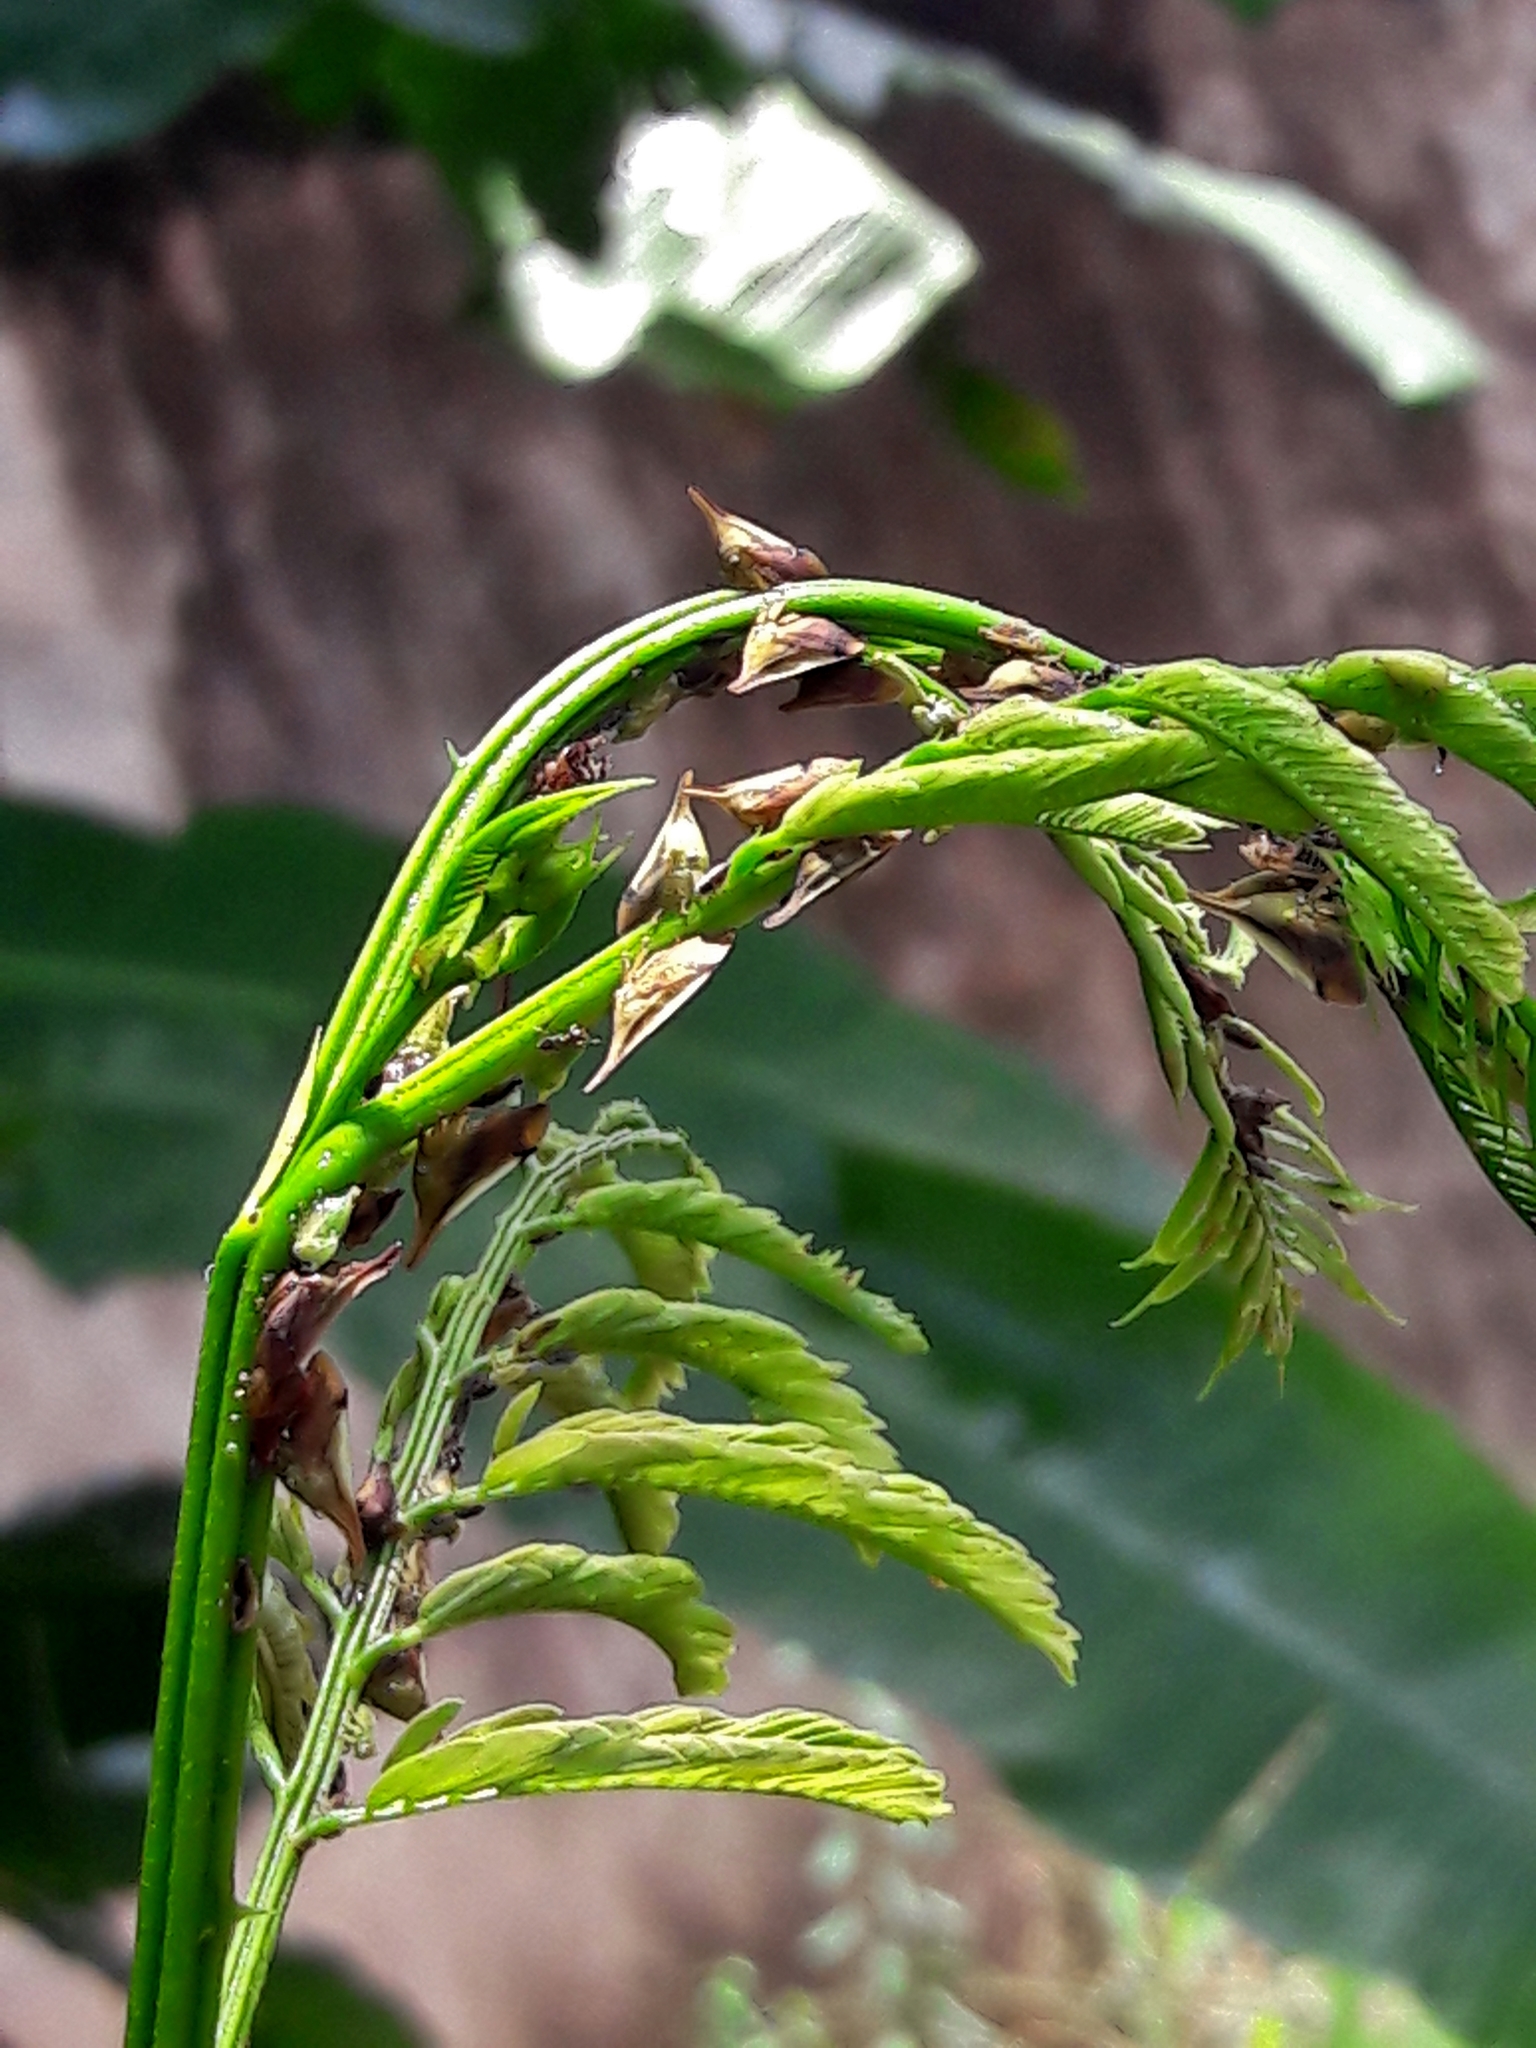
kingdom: Animalia
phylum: Arthropoda
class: Insecta
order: Hemiptera
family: Membracidae
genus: Enchenopa
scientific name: Enchenopa concolor
